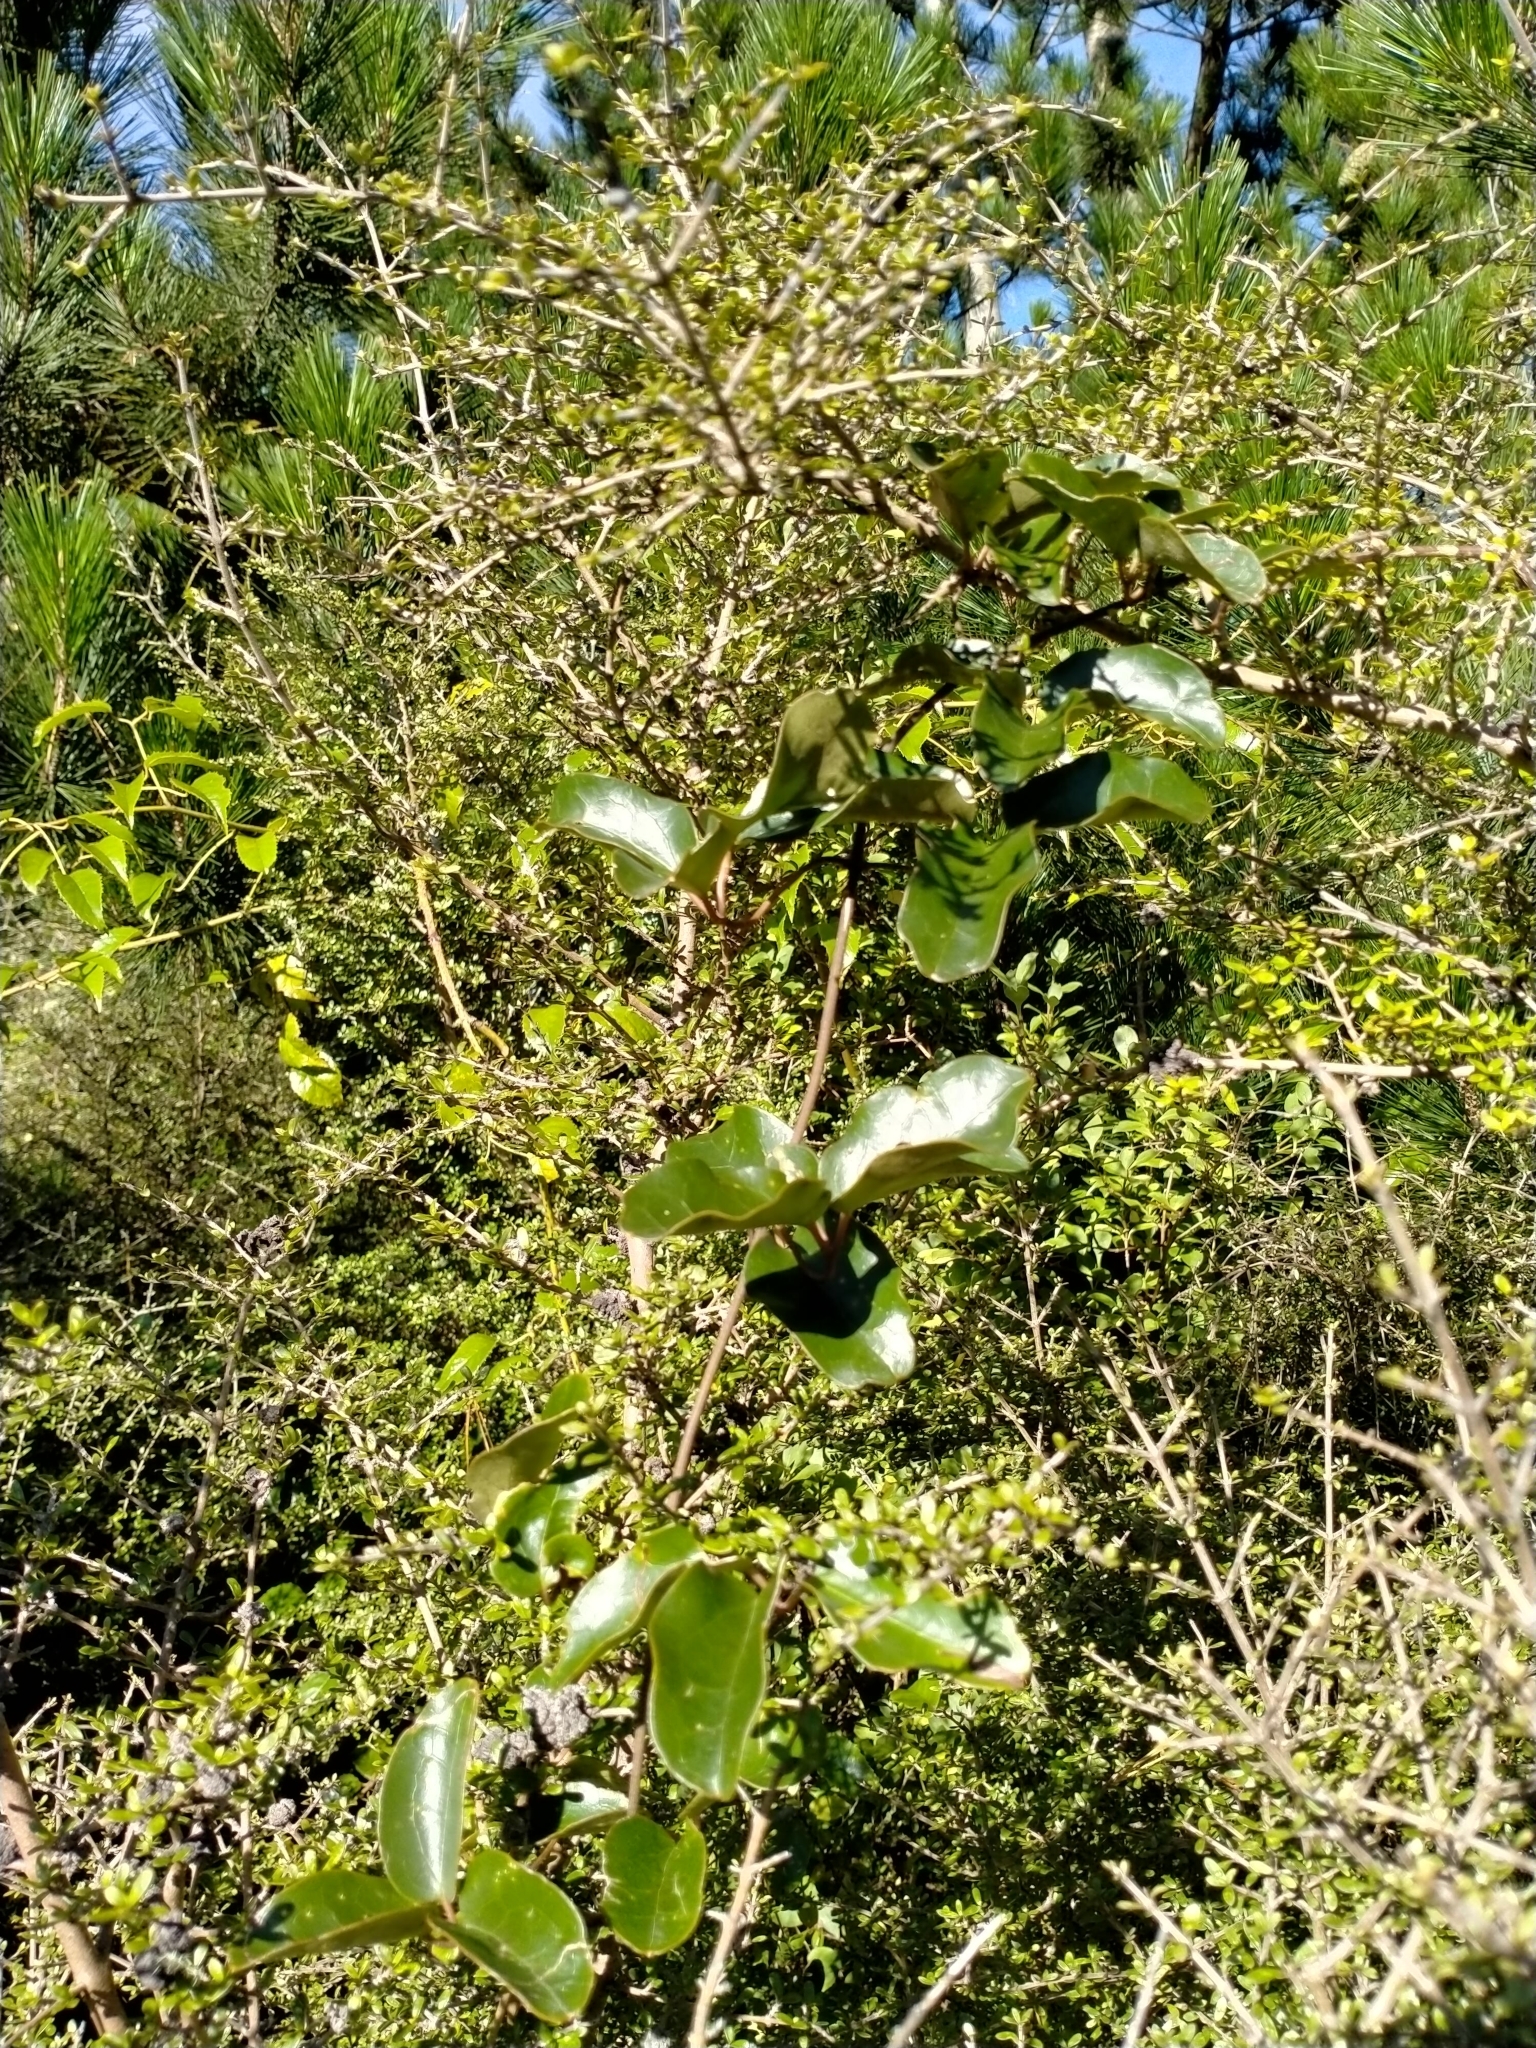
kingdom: Plantae
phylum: Tracheophyta
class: Magnoliopsida
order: Ranunculales
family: Ranunculaceae
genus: Clematis
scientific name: Clematis paniculata
